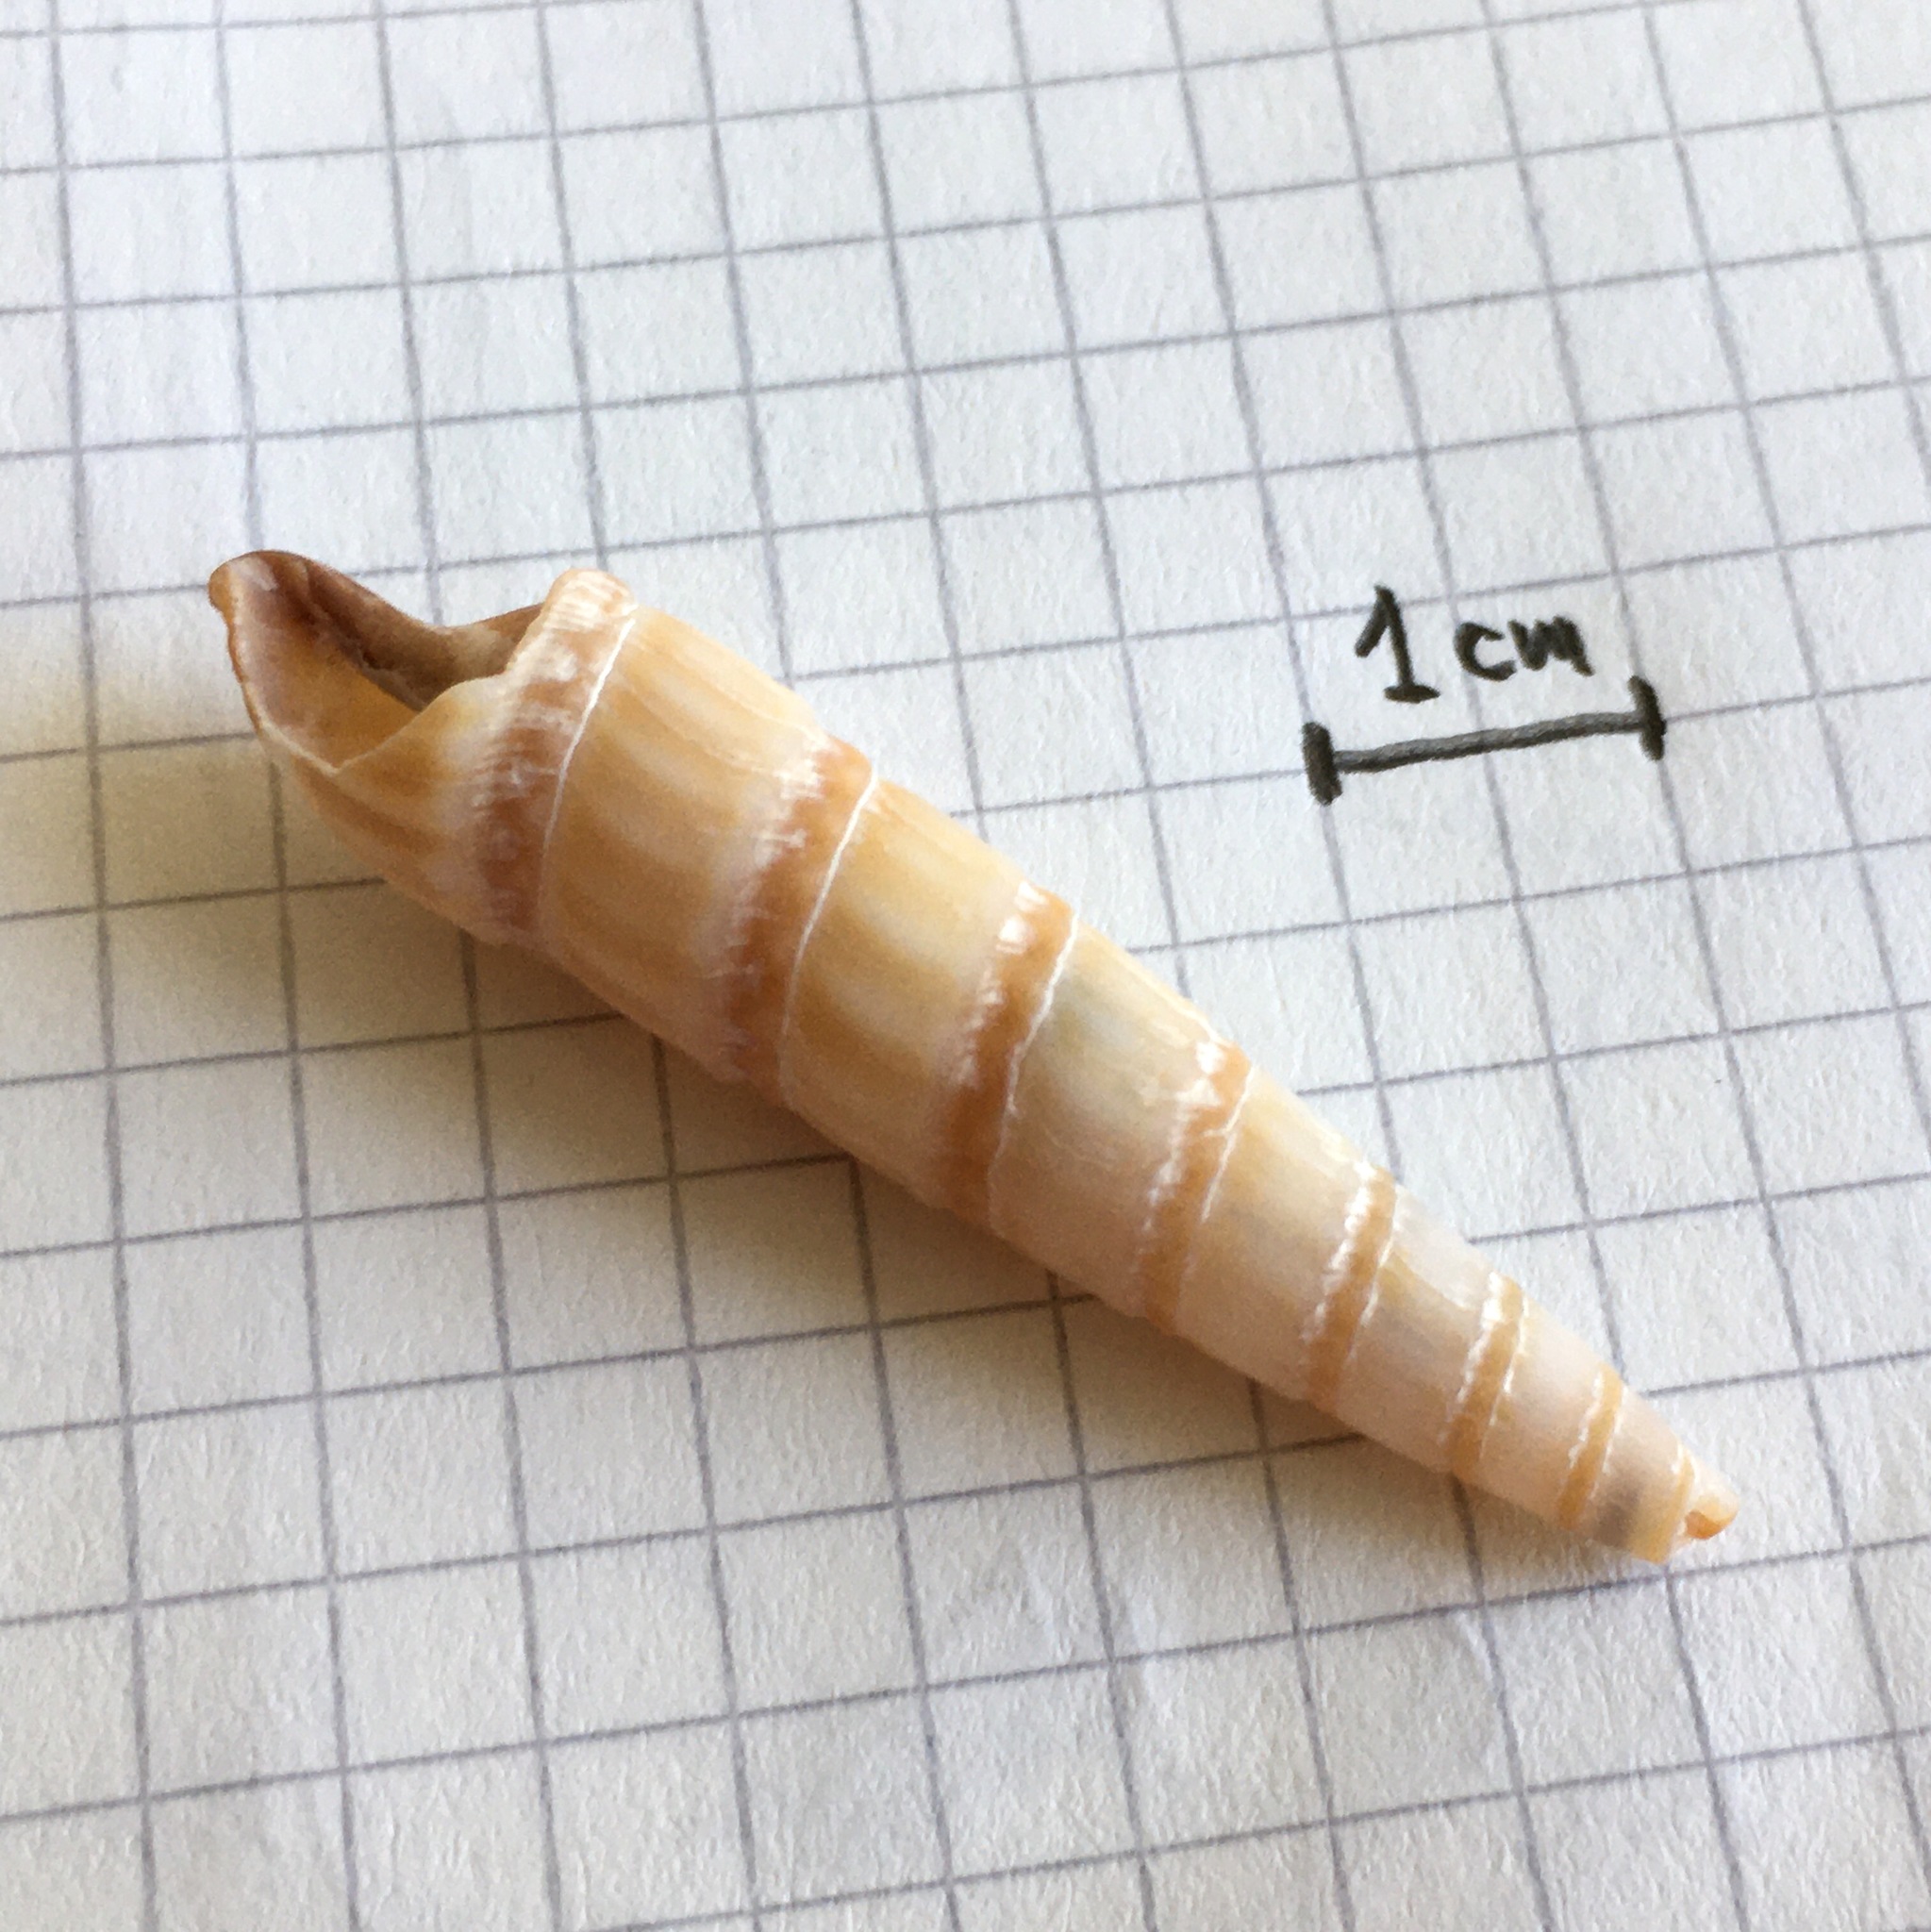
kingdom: Animalia
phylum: Mollusca
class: Gastropoda
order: Neogastropoda
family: Terebridae
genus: Duplicaria
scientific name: Duplicaria gemmulata
